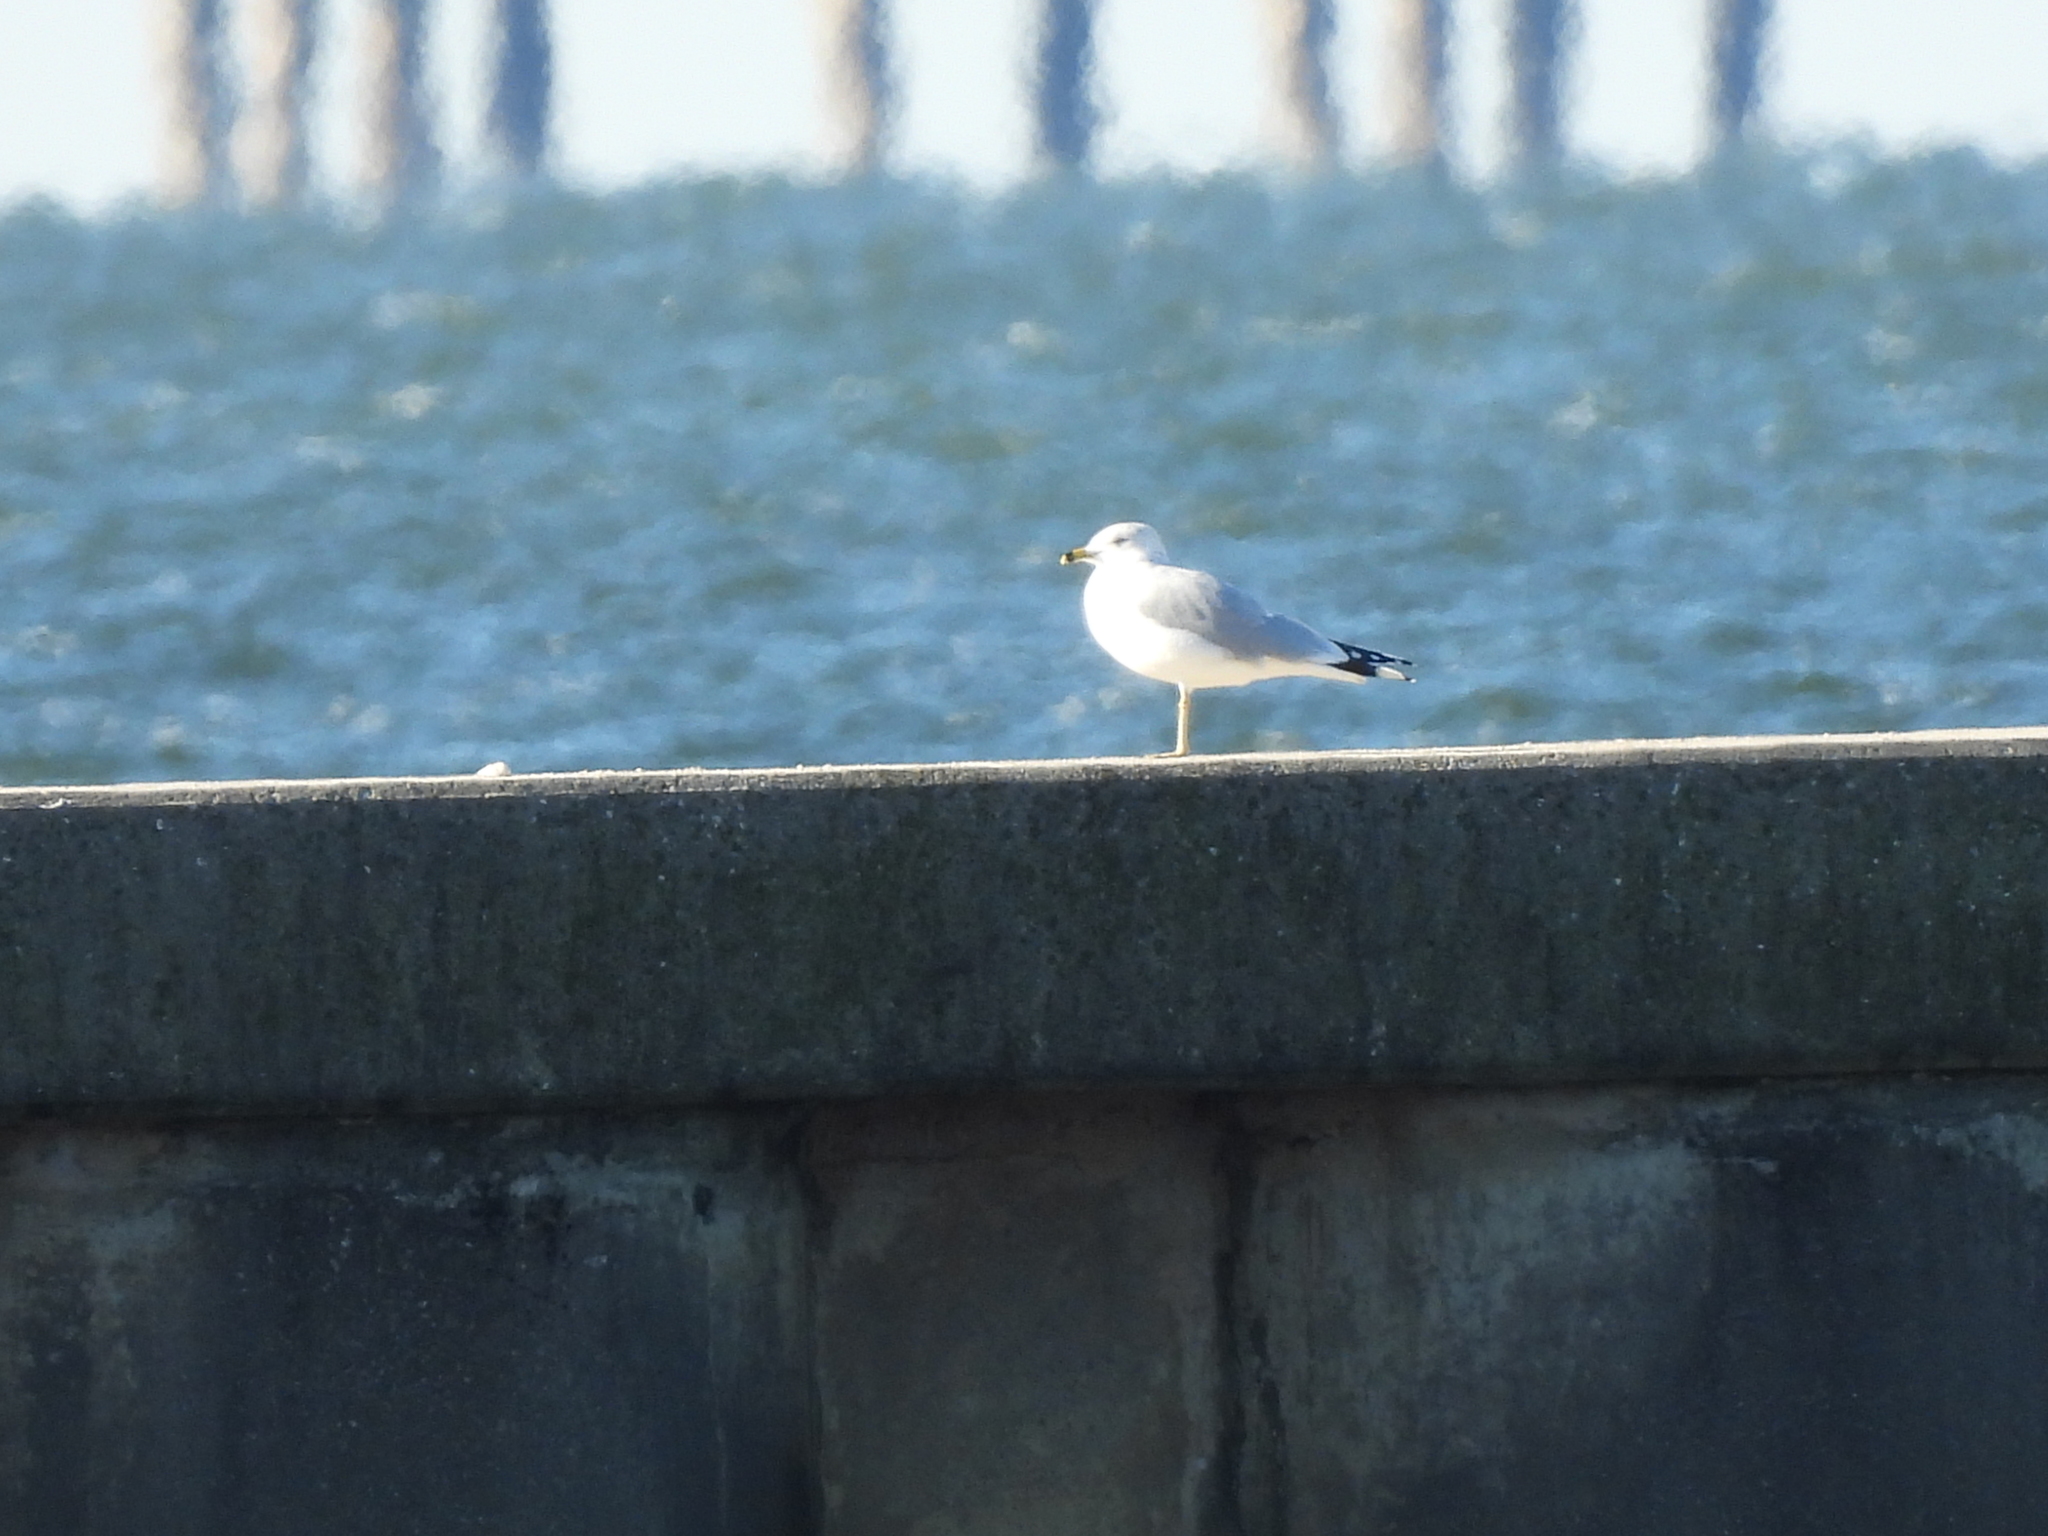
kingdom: Animalia
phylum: Chordata
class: Aves
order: Charadriiformes
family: Laridae
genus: Larus
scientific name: Larus delawarensis
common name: Ring-billed gull
